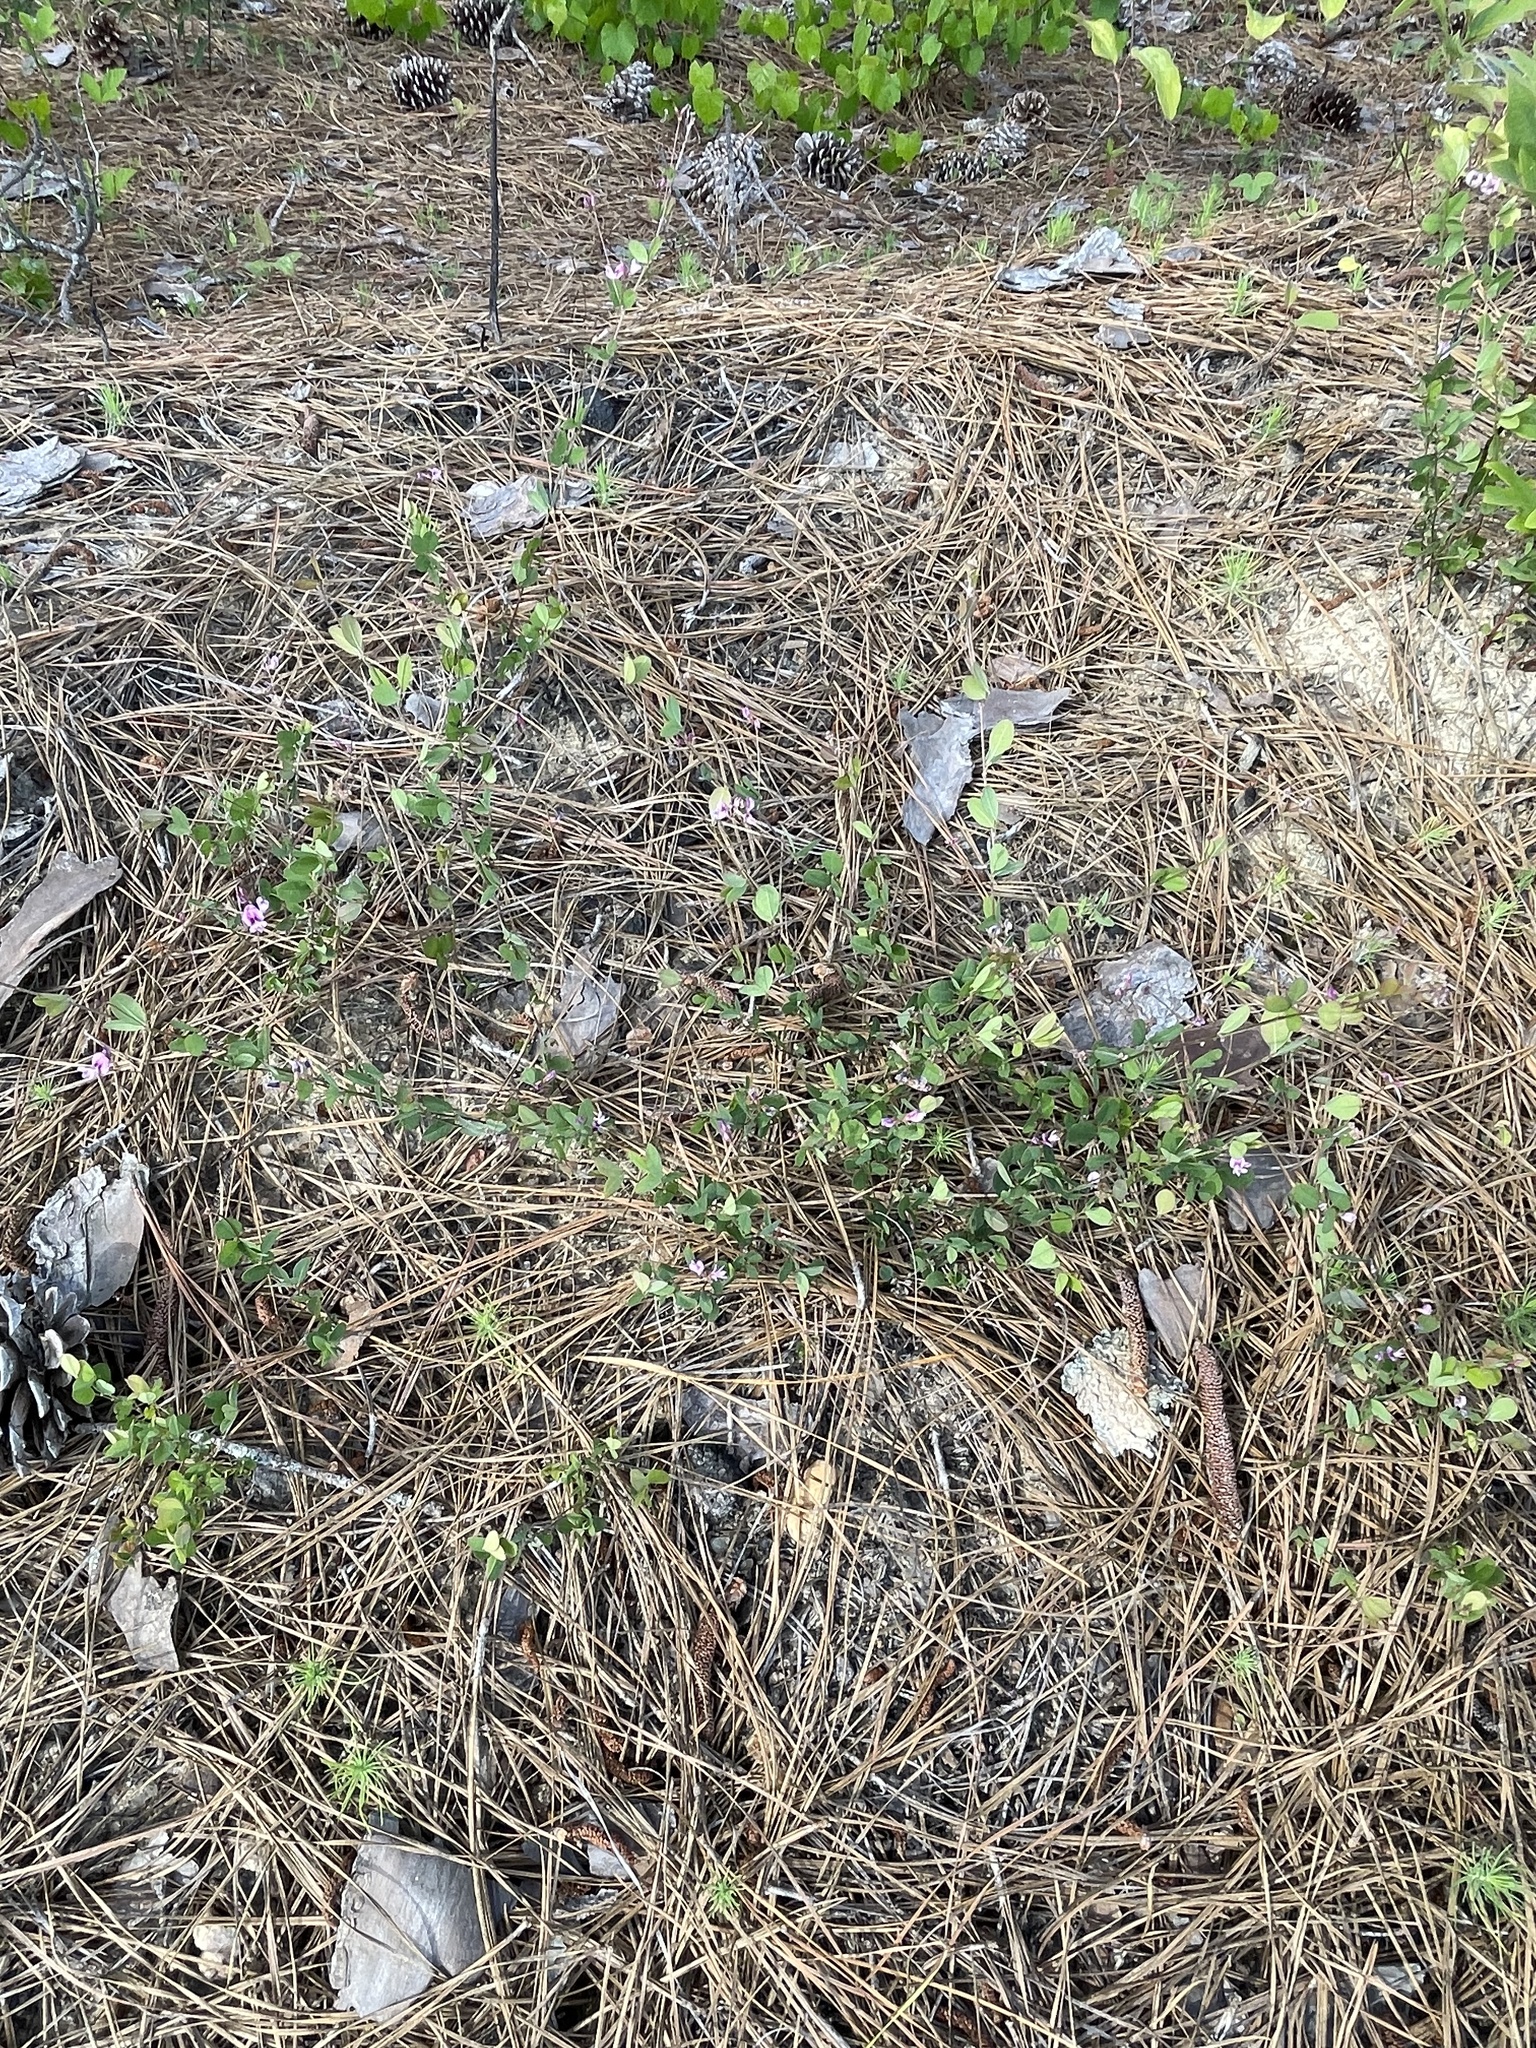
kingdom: Plantae
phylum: Tracheophyta
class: Magnoliopsida
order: Fabales
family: Fabaceae
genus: Tephrosia
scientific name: Tephrosia virginiana
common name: Rabbit-pea
